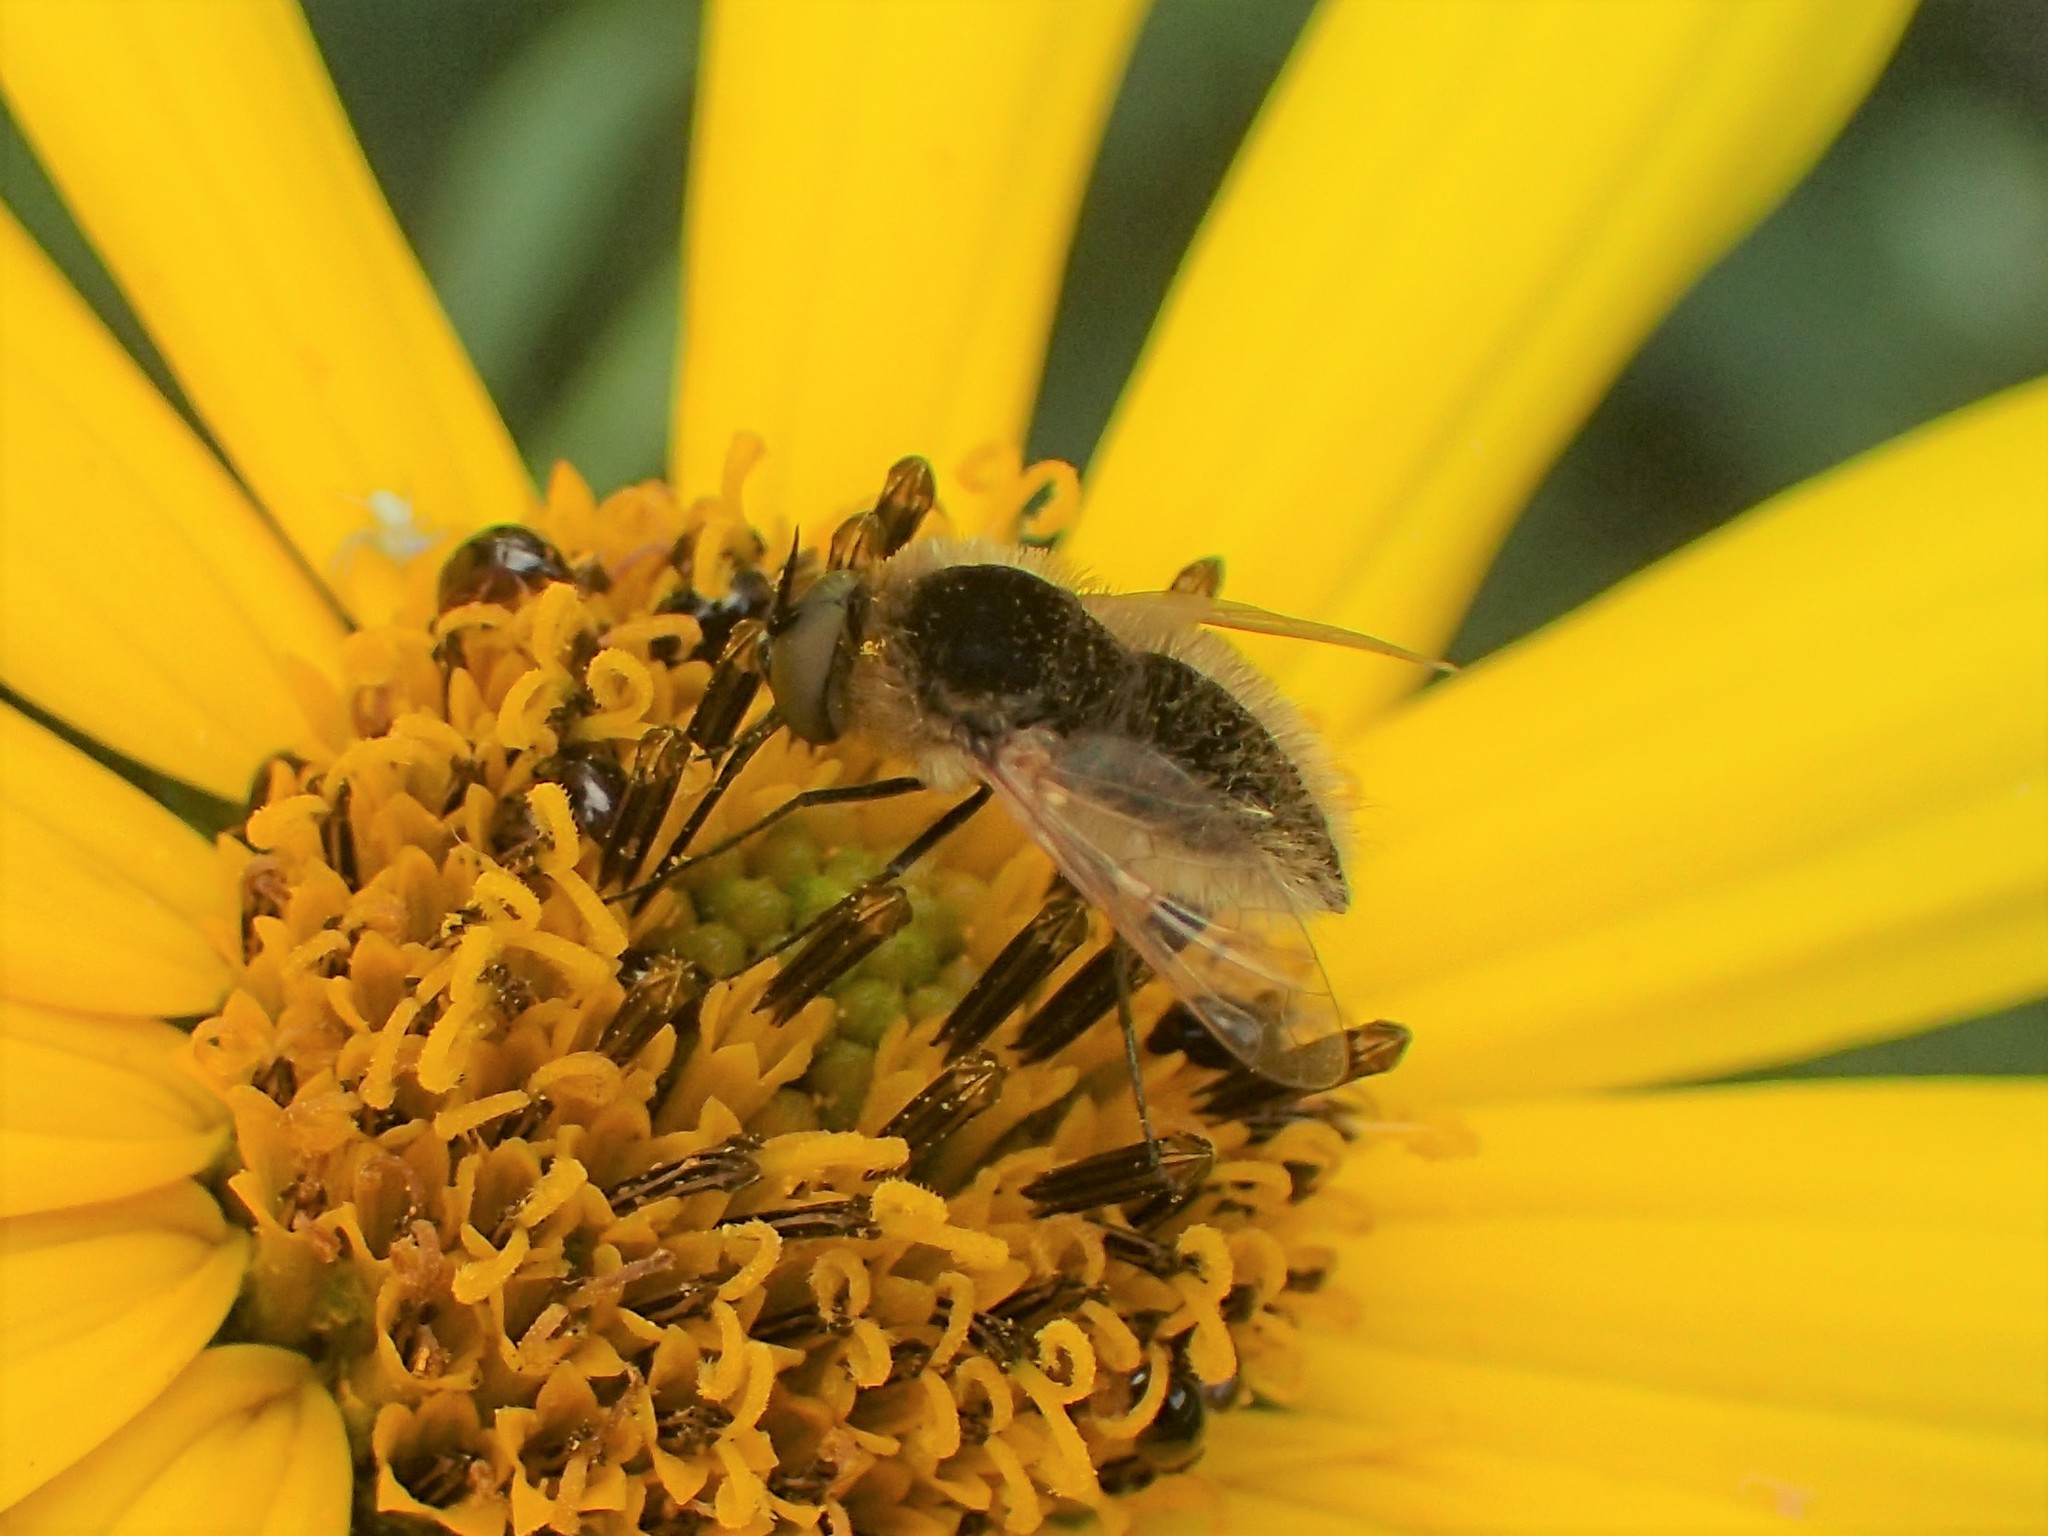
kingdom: Animalia
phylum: Arthropoda
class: Insecta
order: Diptera
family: Bombyliidae
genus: Sparnopolius
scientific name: Sparnopolius confusus
